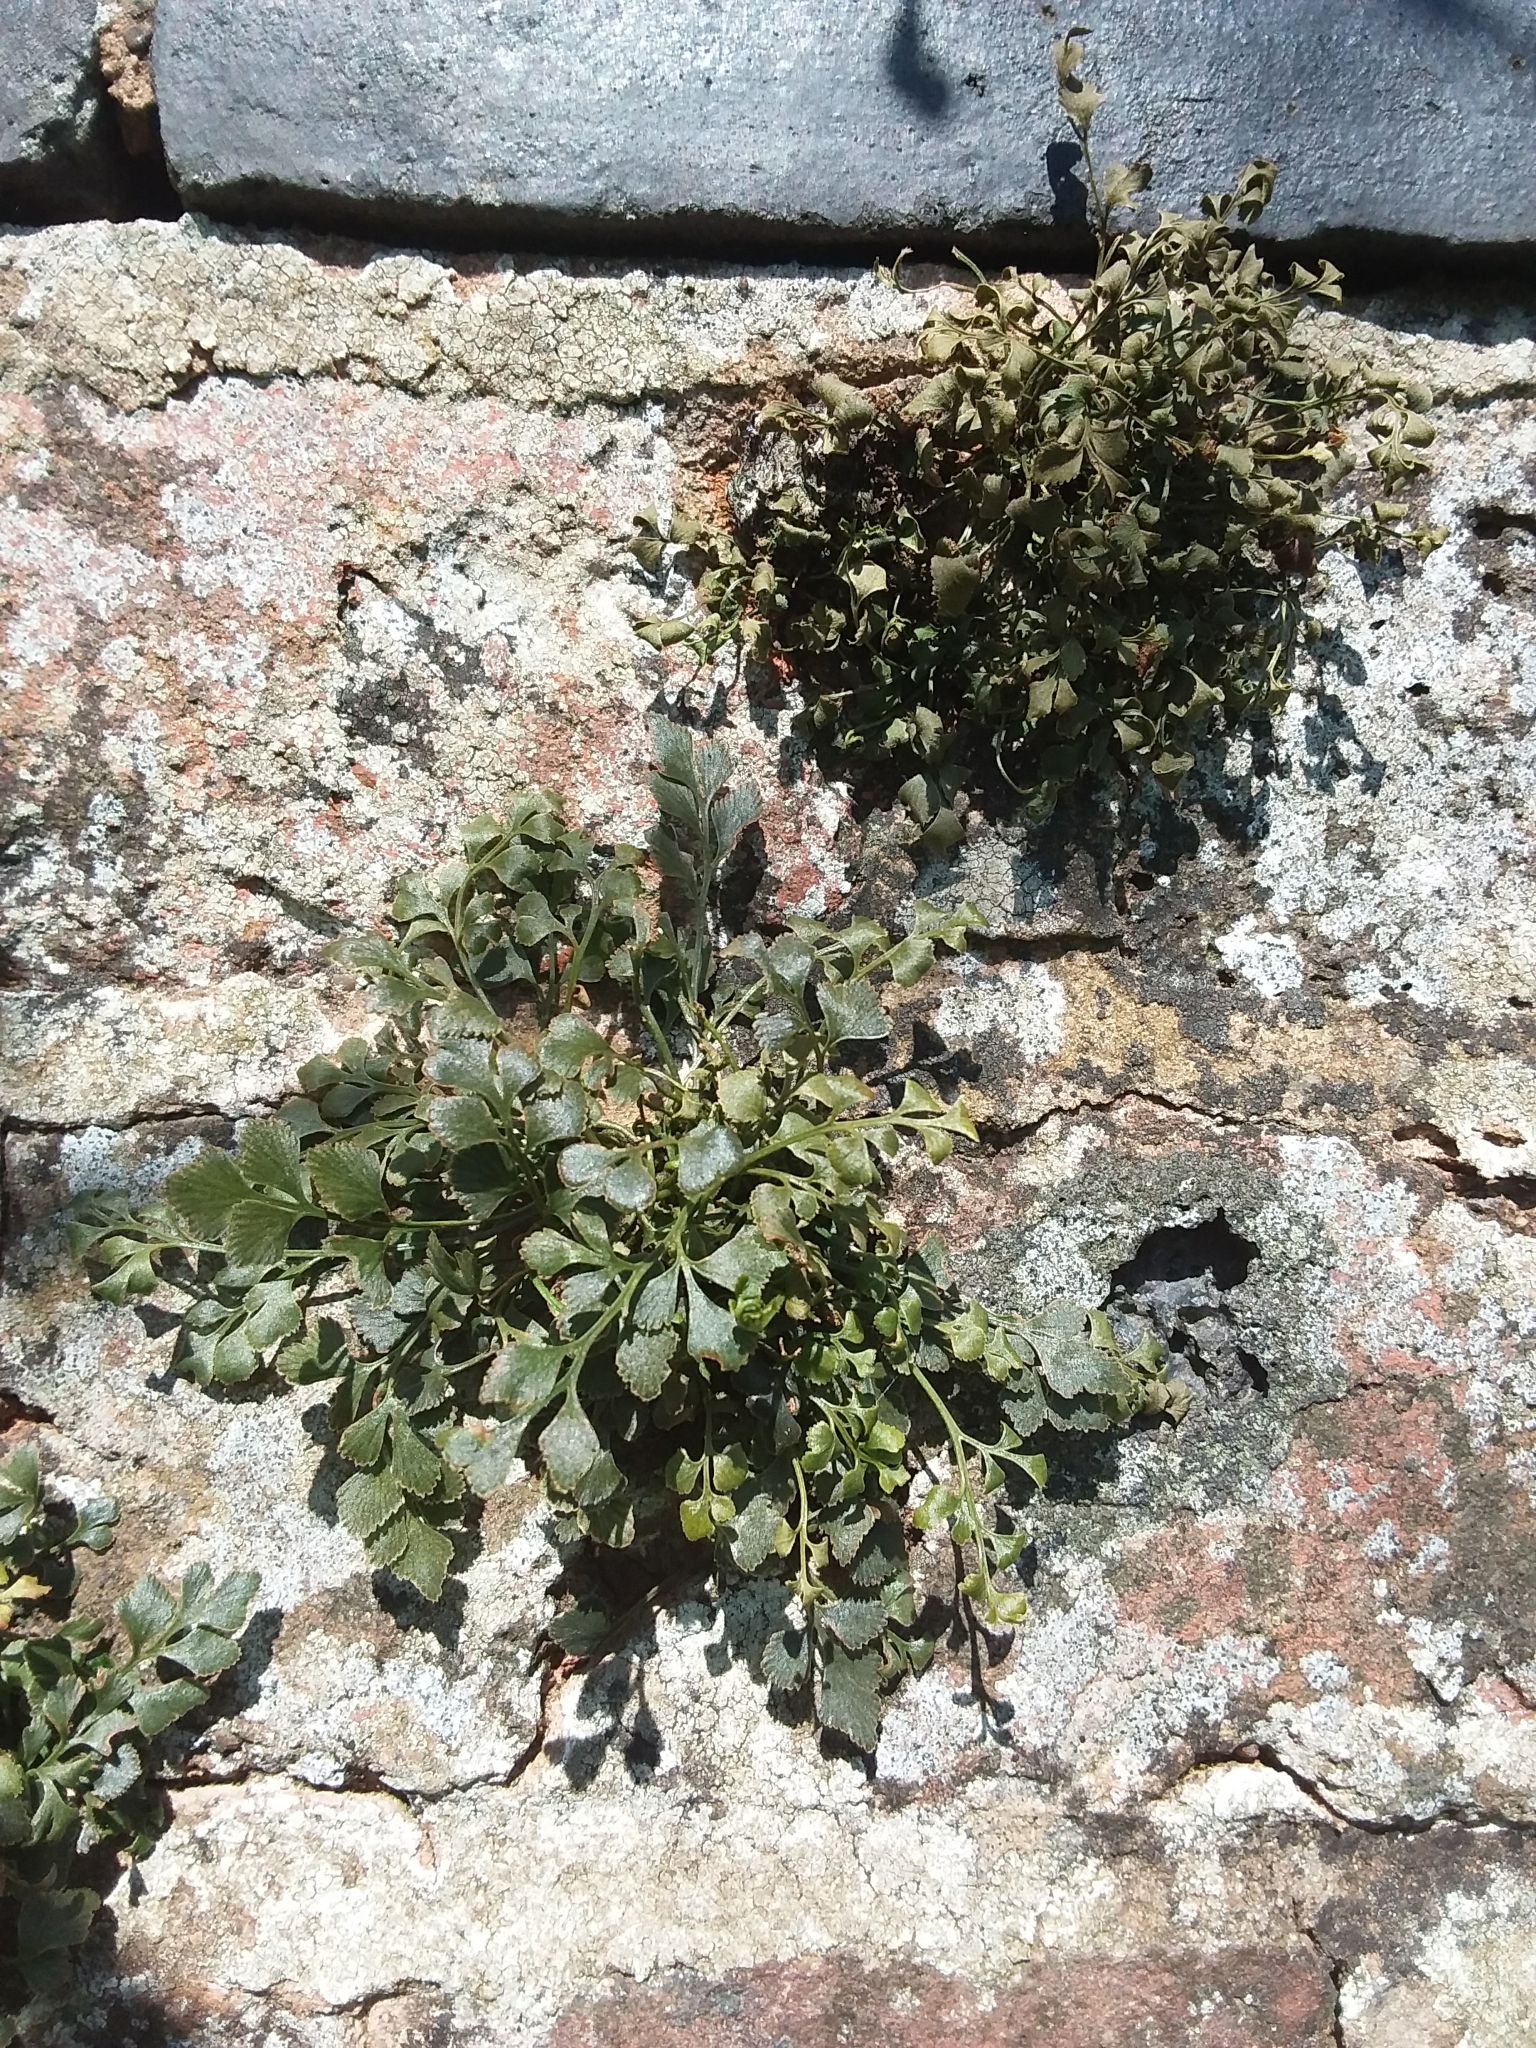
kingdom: Plantae
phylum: Tracheophyta
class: Polypodiopsida
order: Polypodiales
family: Aspleniaceae
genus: Asplenium
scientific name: Asplenium ruta-muraria
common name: Wall-rue
